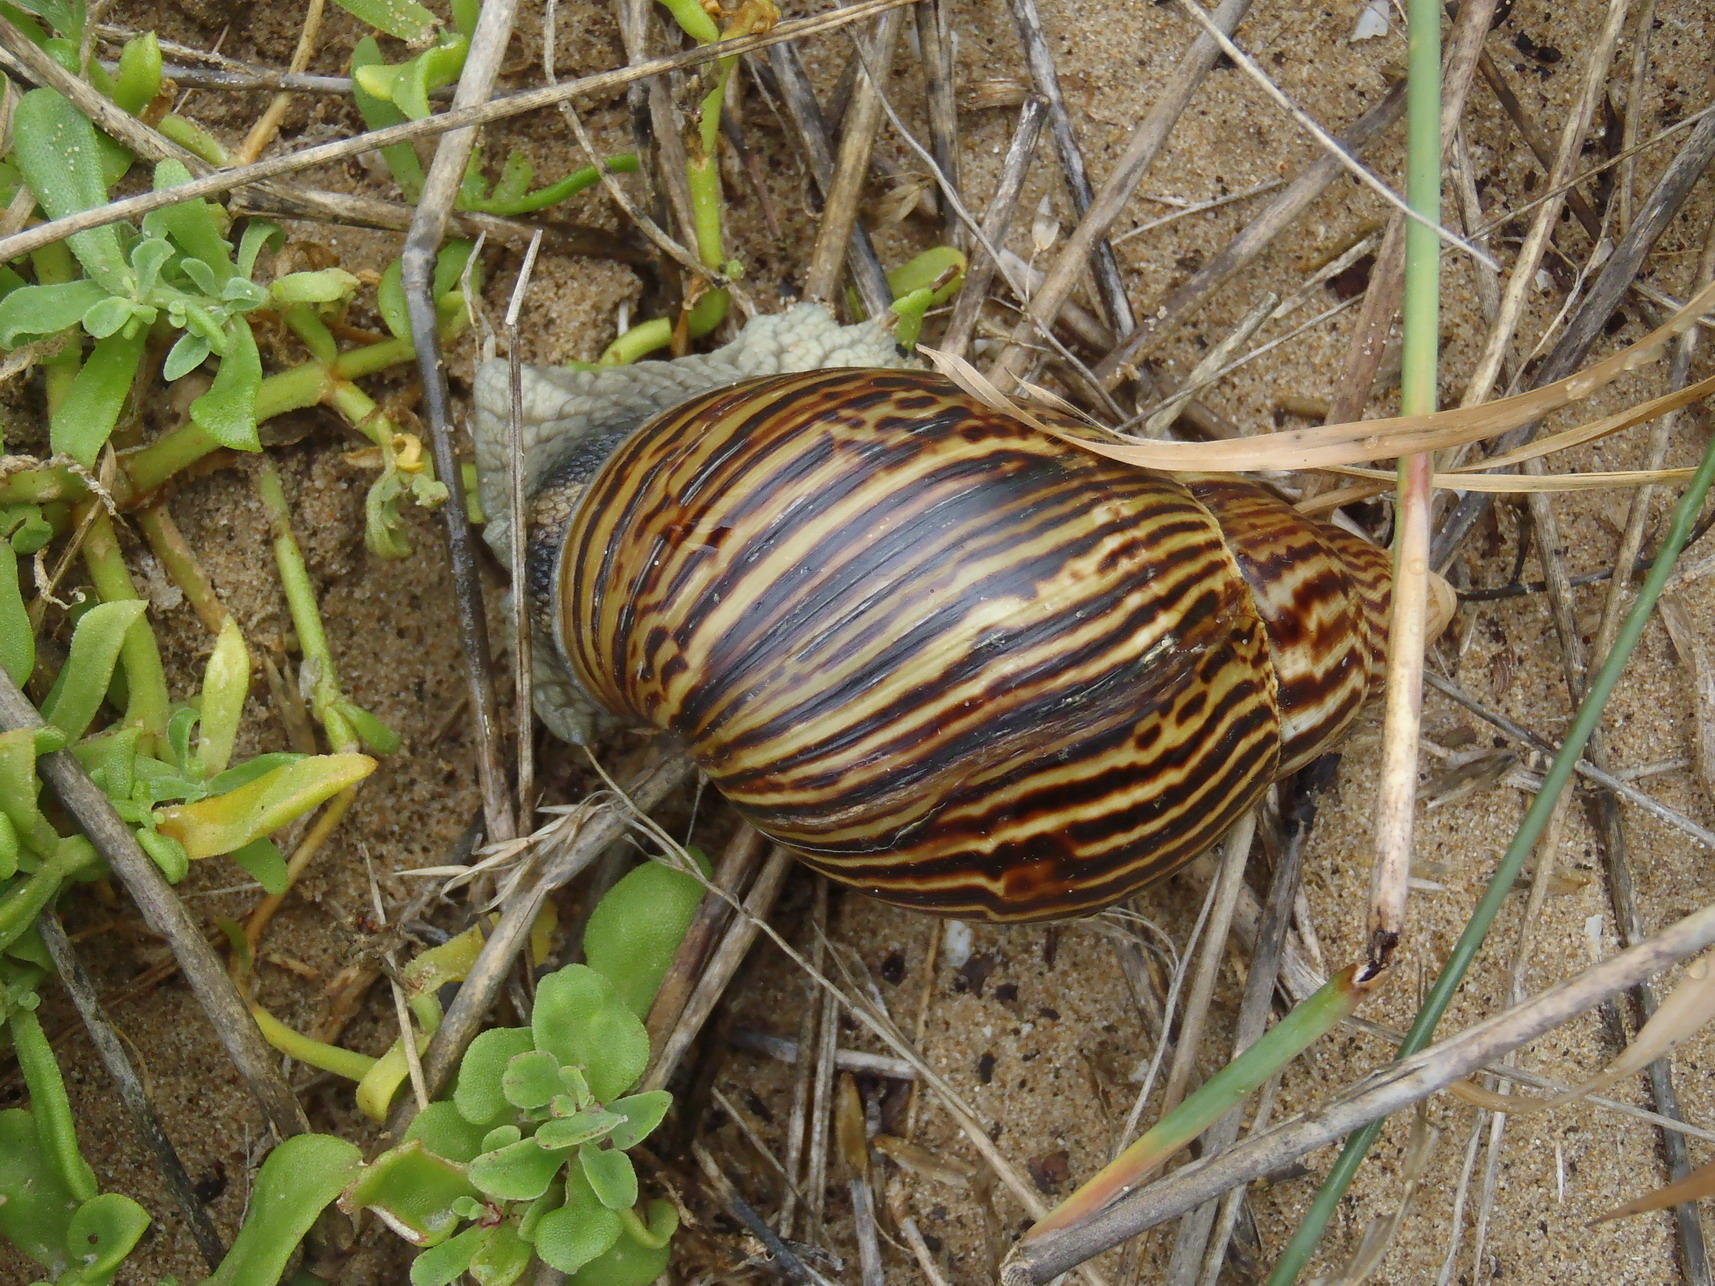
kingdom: Animalia
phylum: Mollusca
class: Gastropoda
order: Stylommatophora
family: Achatinidae
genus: Cochlitoma
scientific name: Cochlitoma zebra
